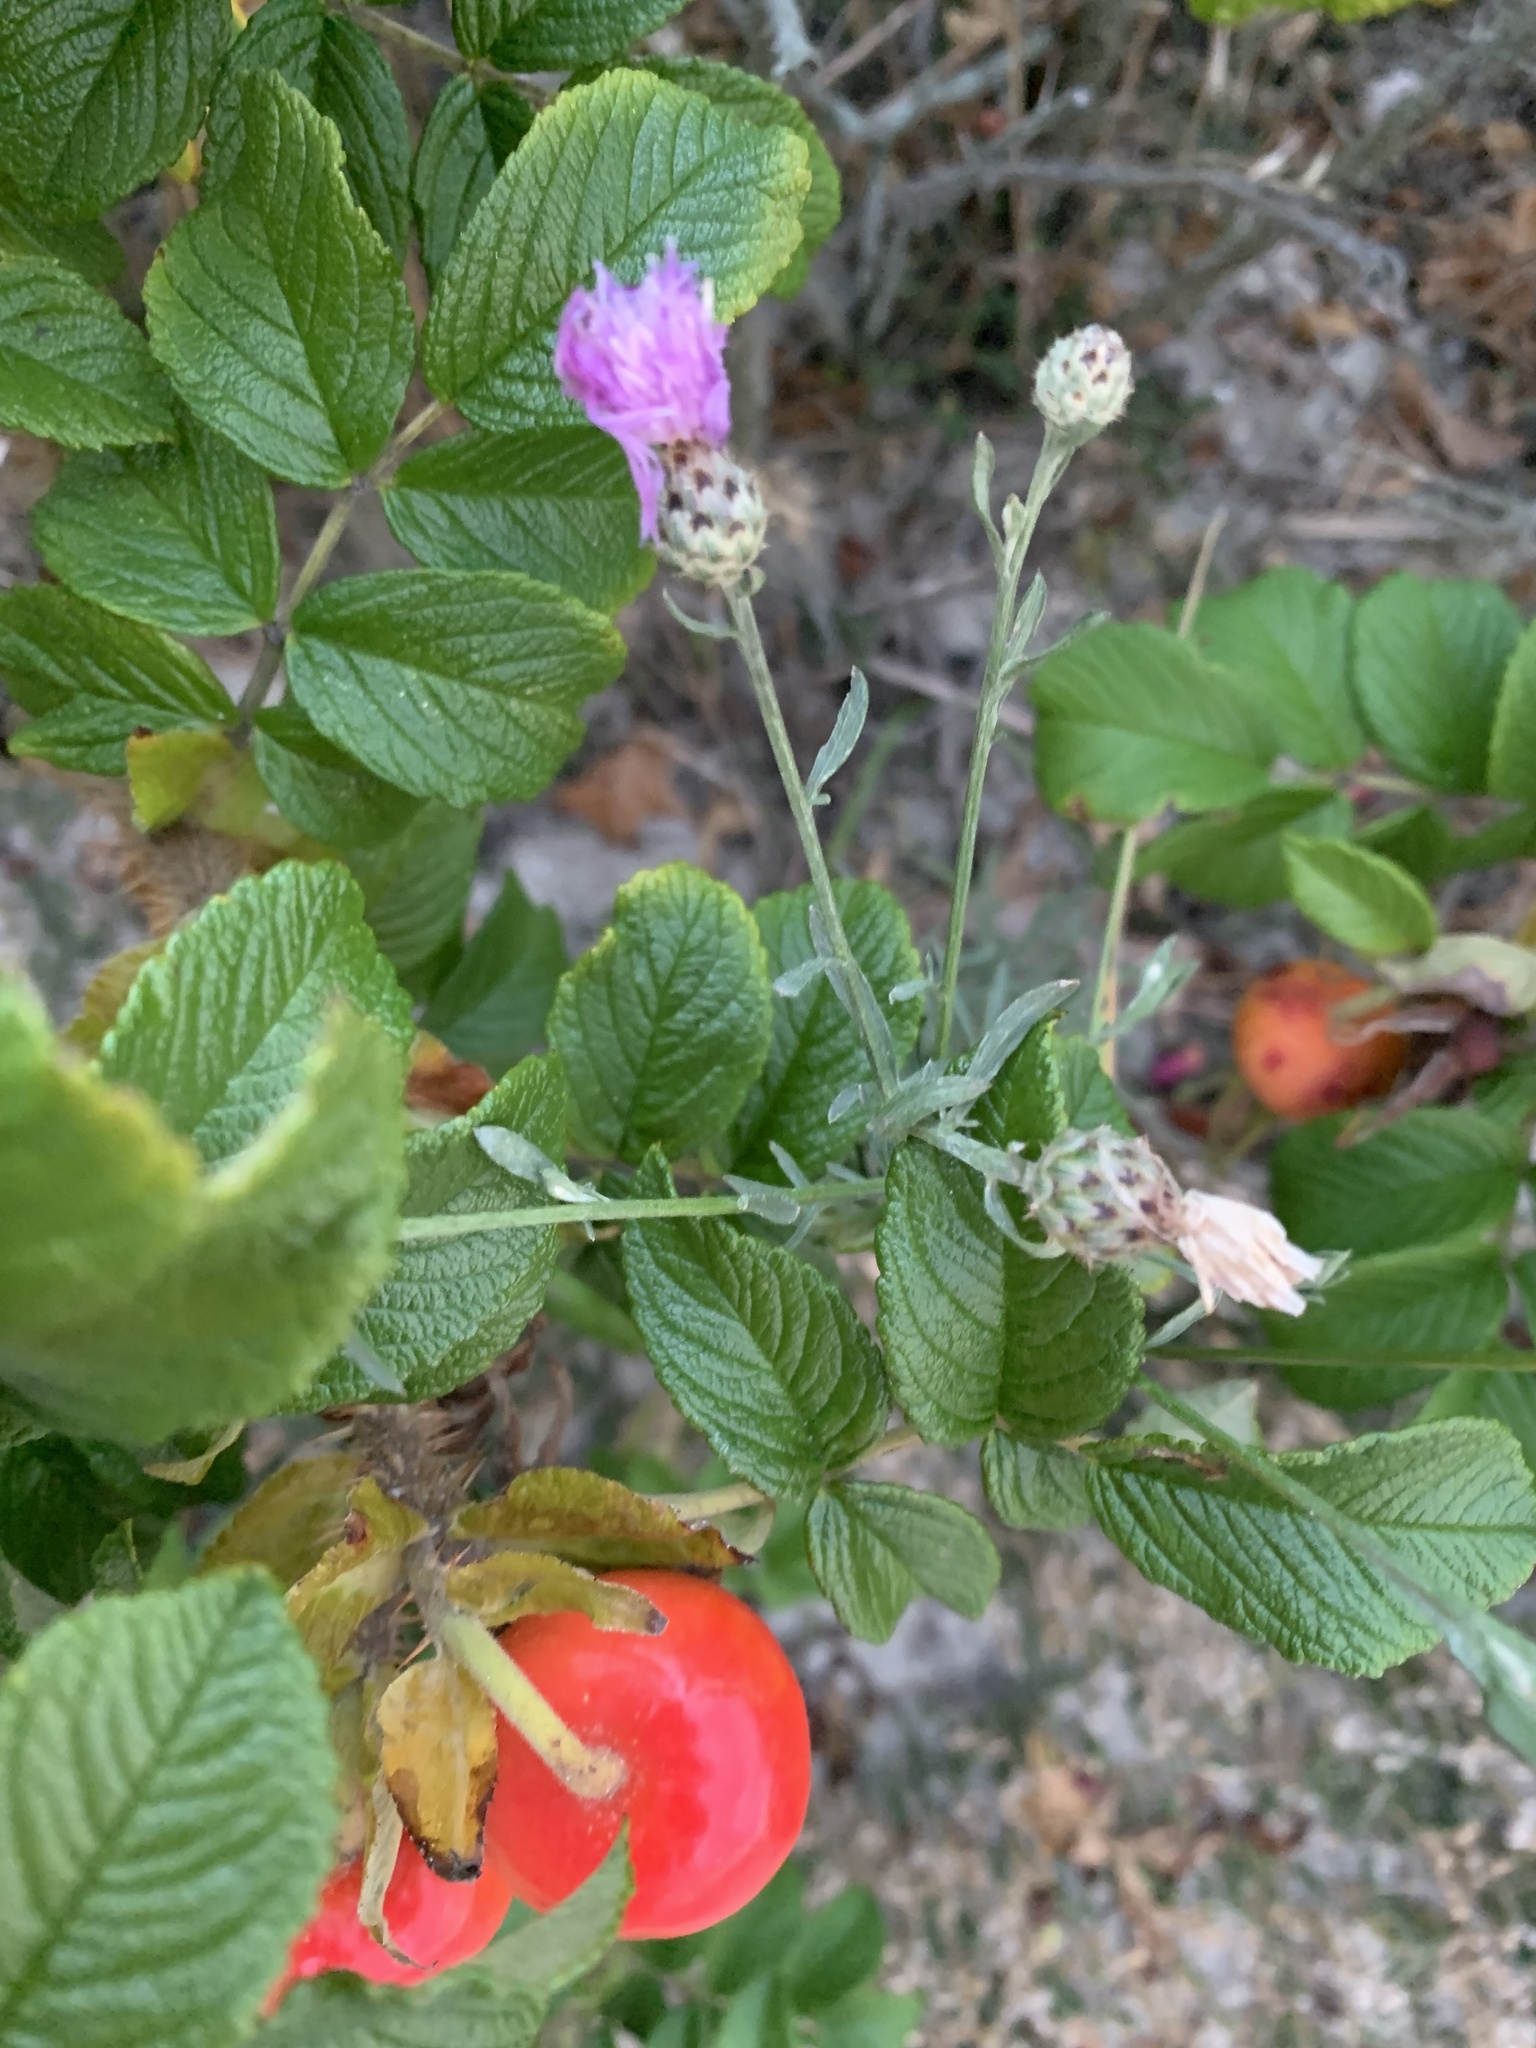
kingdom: Plantae
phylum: Tracheophyta
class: Magnoliopsida
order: Asterales
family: Asteraceae
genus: Centaurea
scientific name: Centaurea stoebe
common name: Spotted knapweed
